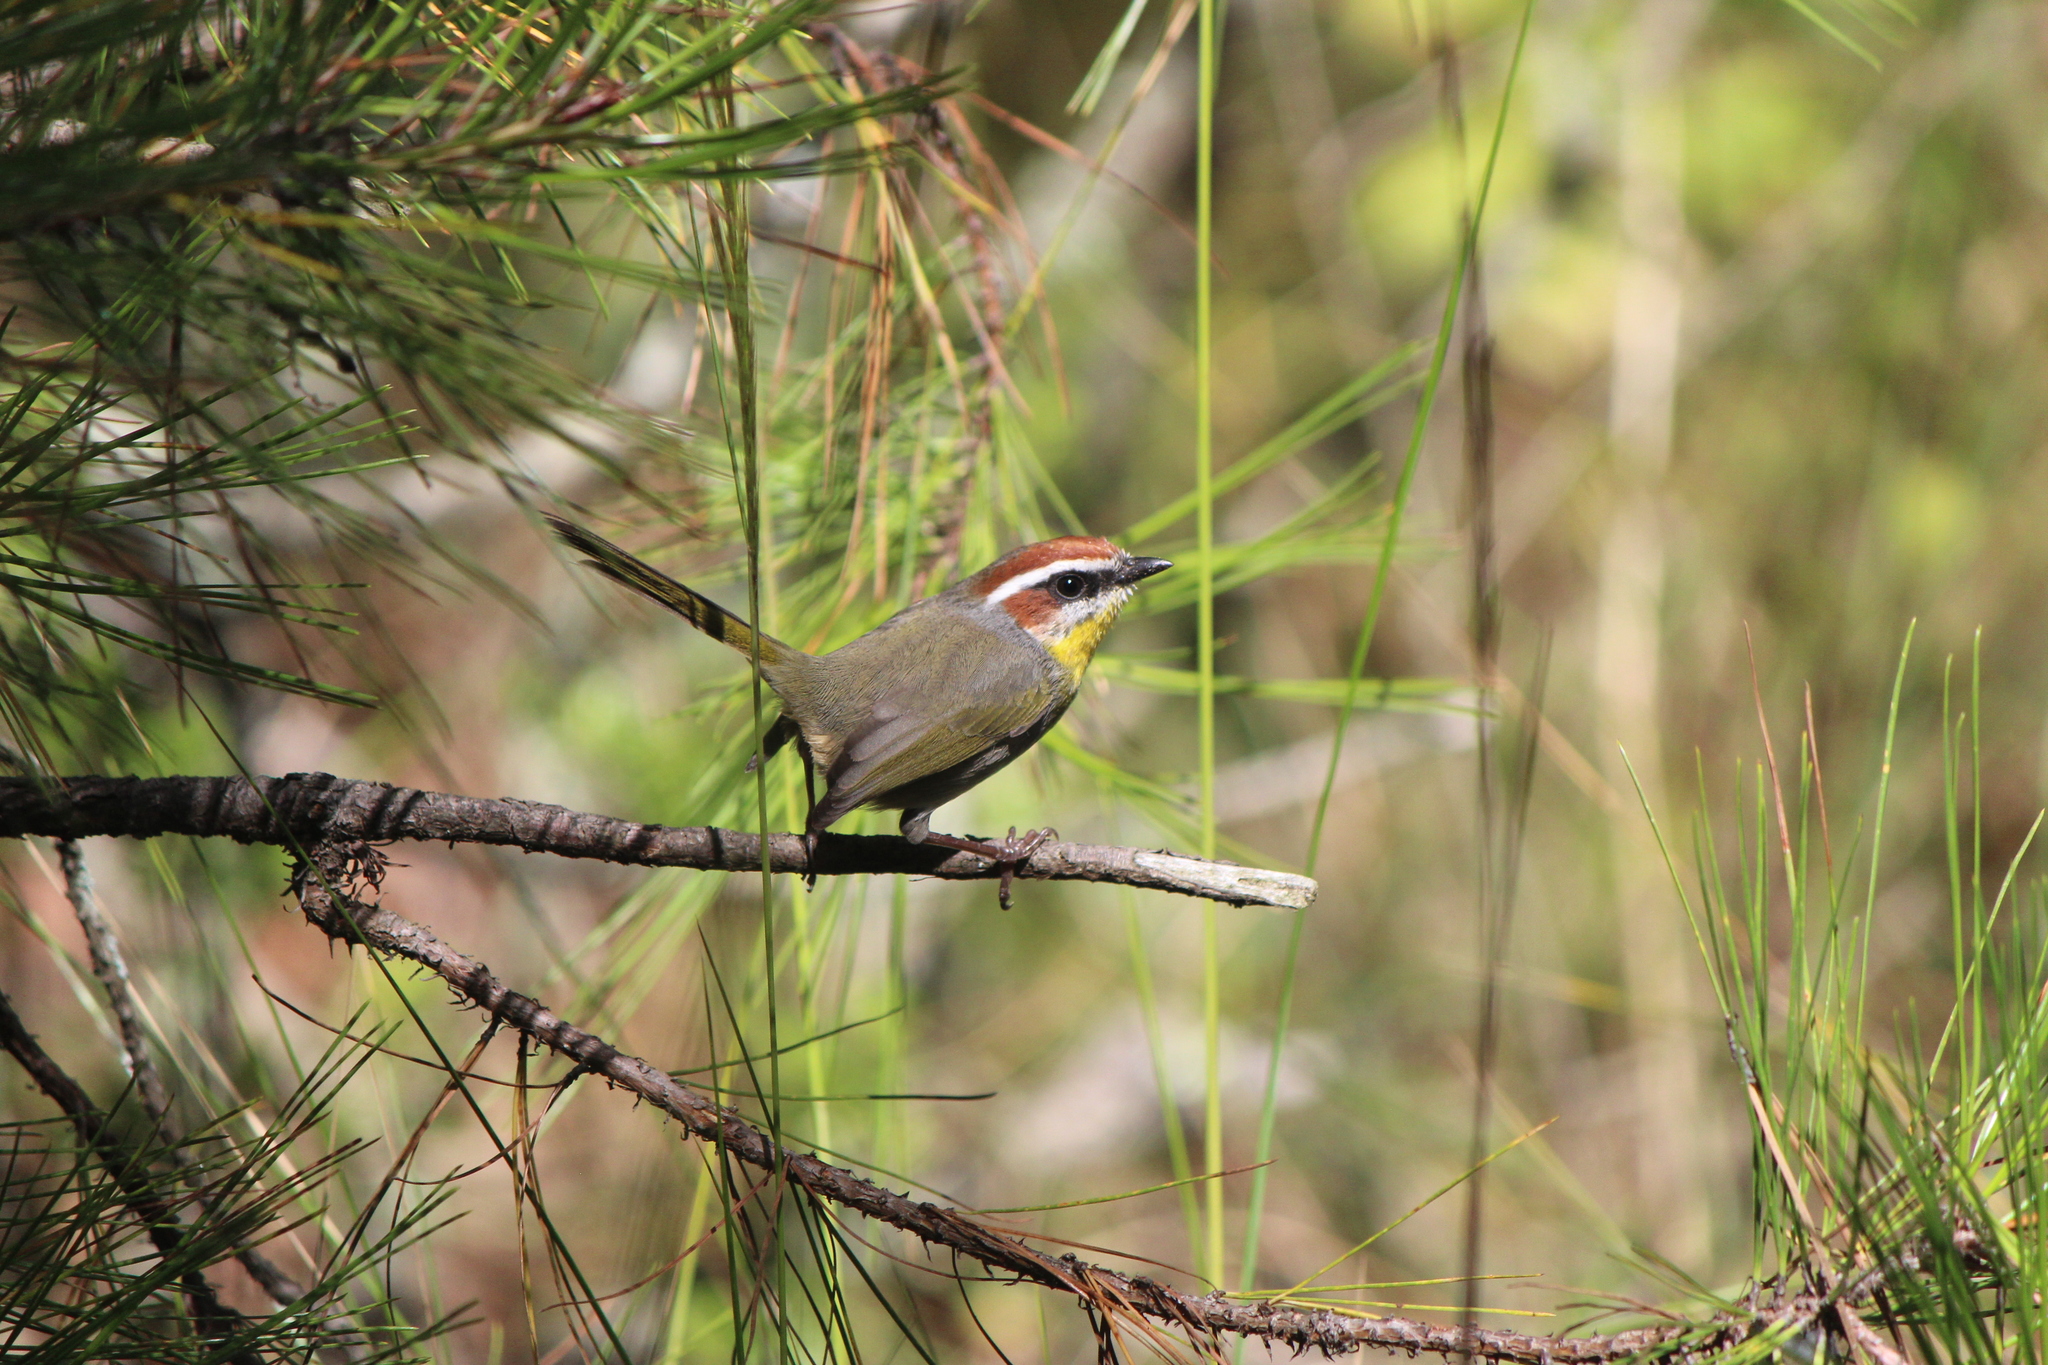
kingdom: Animalia
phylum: Chordata
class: Aves
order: Passeriformes
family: Parulidae
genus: Basileuterus
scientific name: Basileuterus rufifrons
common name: Rufous-capped warbler
